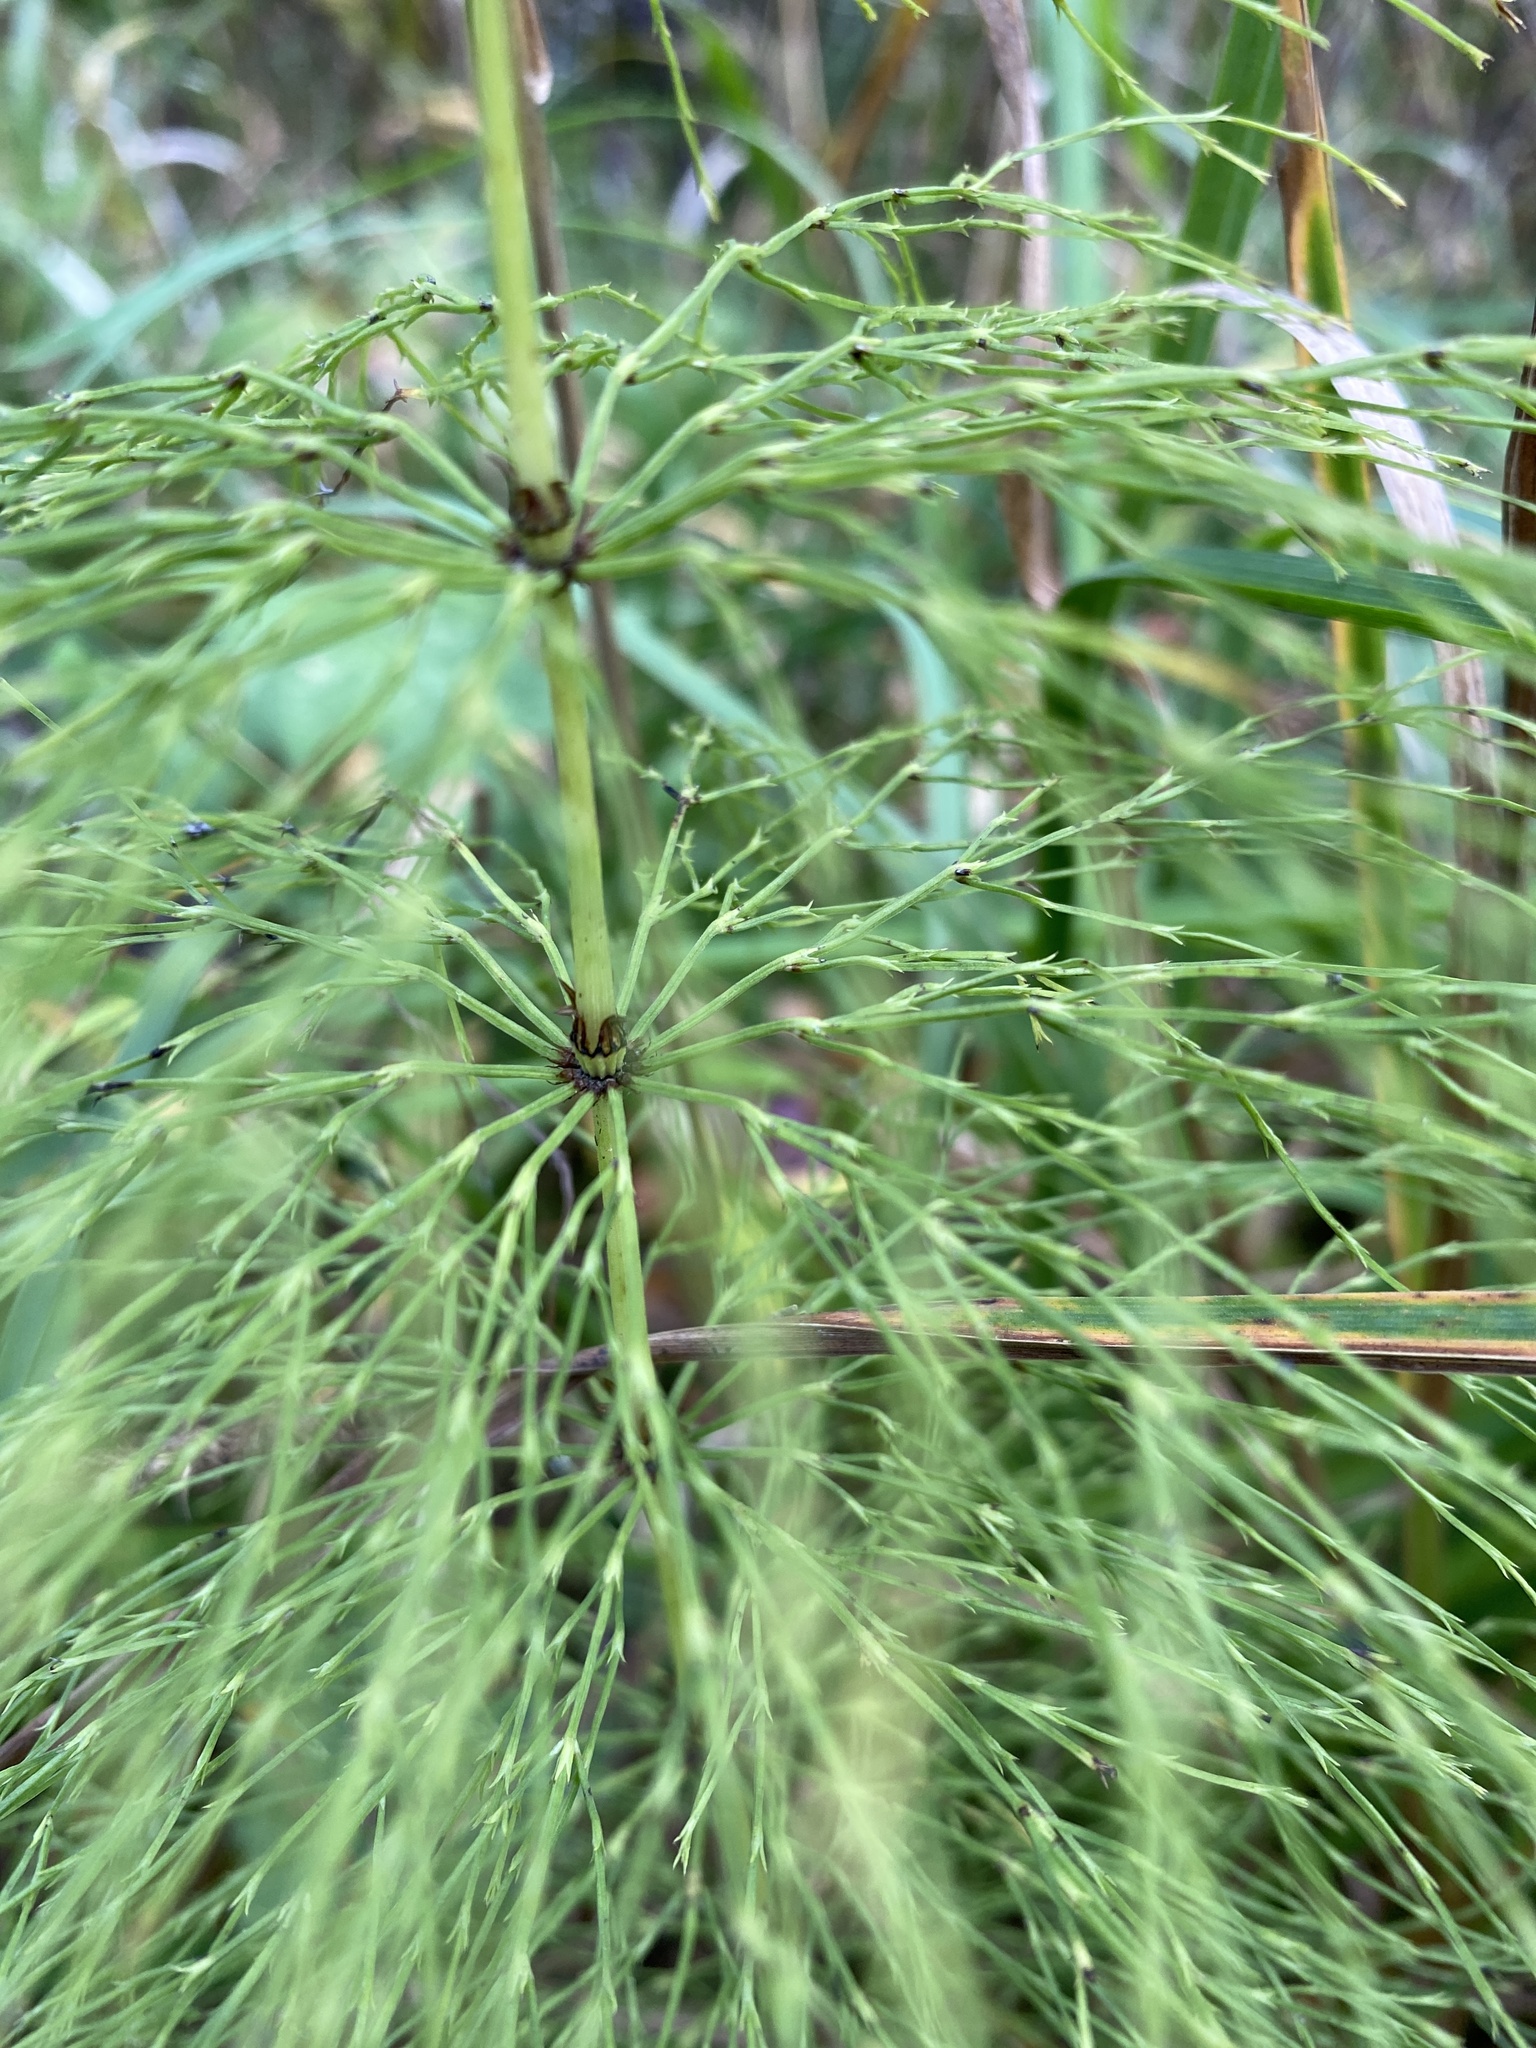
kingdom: Plantae
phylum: Tracheophyta
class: Polypodiopsida
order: Equisetales
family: Equisetaceae
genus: Equisetum
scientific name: Equisetum sylvaticum
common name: Wood horsetail
